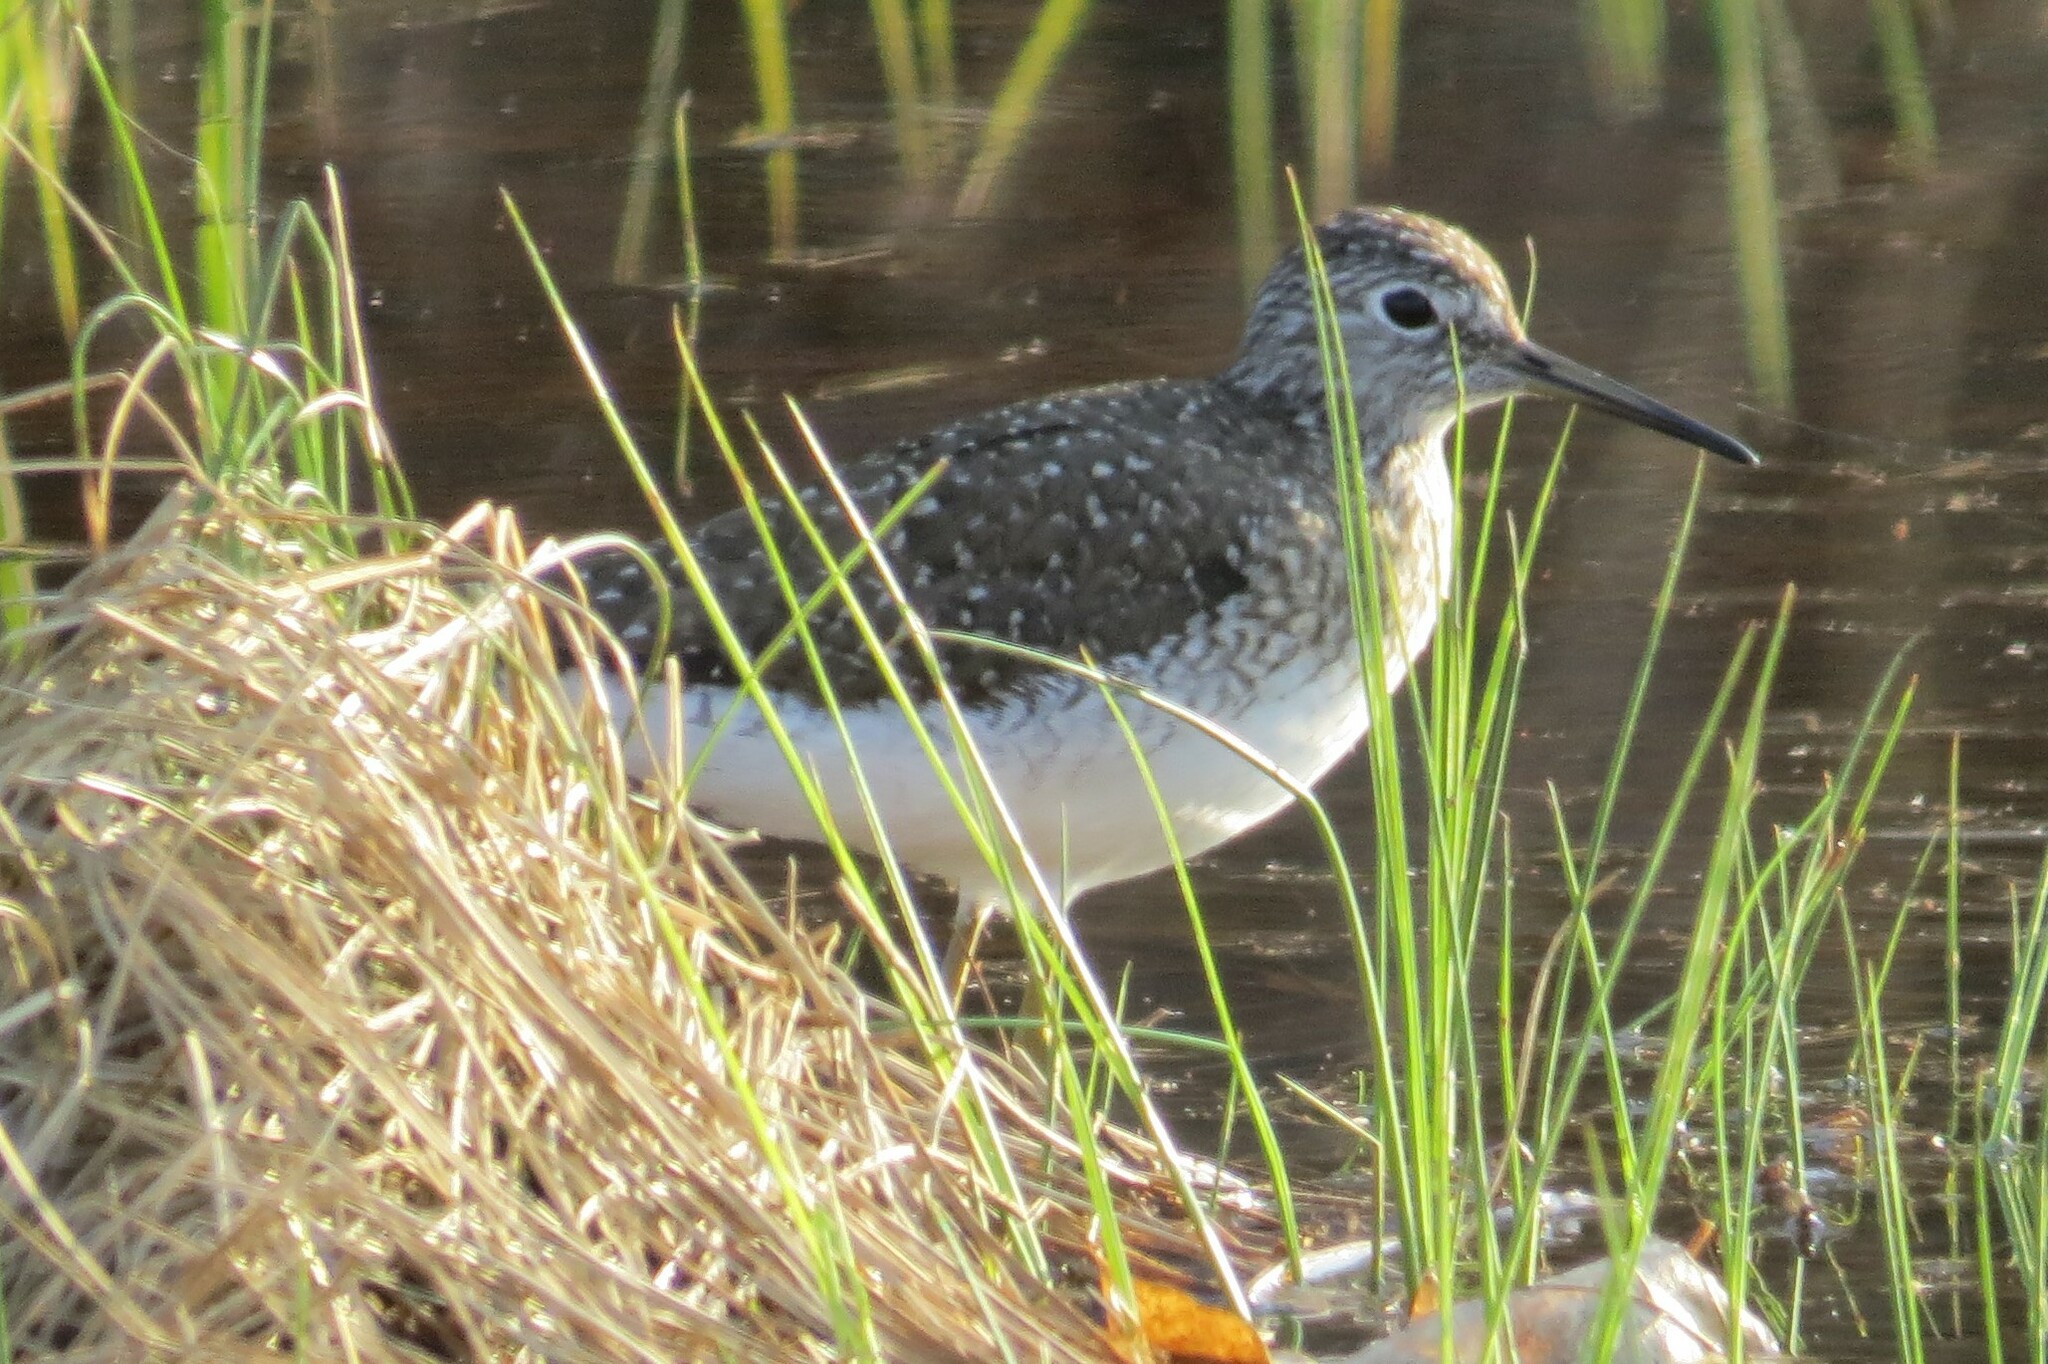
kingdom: Animalia
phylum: Chordata
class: Aves
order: Charadriiformes
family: Scolopacidae
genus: Tringa
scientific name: Tringa solitaria
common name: Solitary sandpiper
